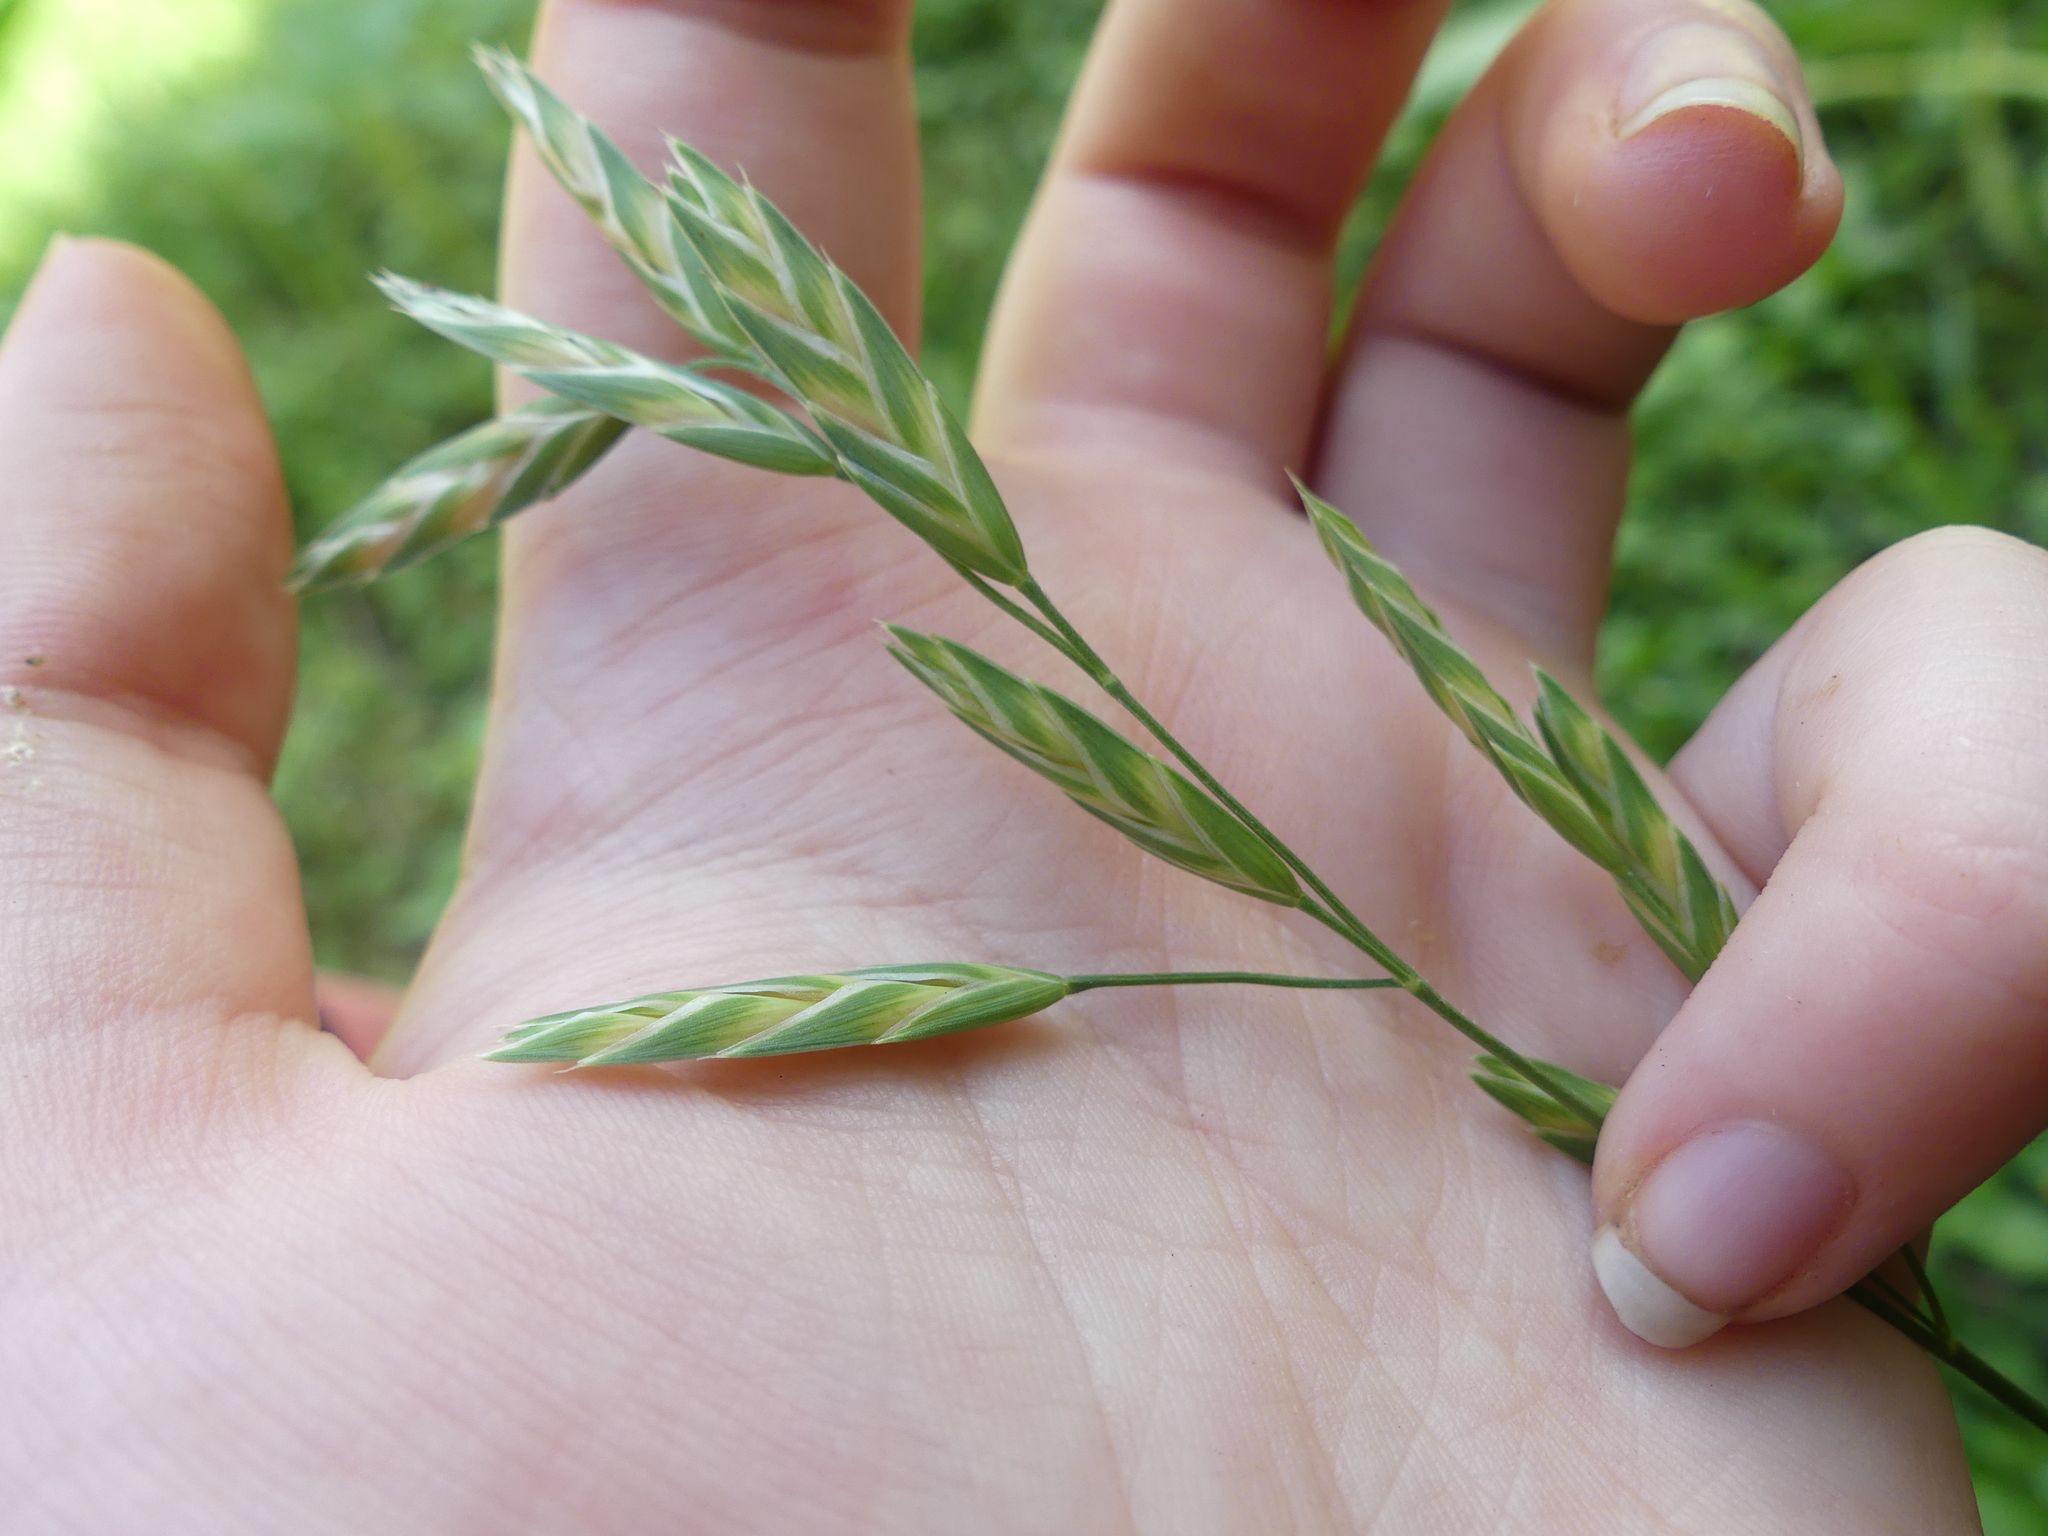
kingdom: Plantae
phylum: Tracheophyta
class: Liliopsida
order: Poales
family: Poaceae
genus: Bromus
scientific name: Bromus catharticus
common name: Rescuegrass
